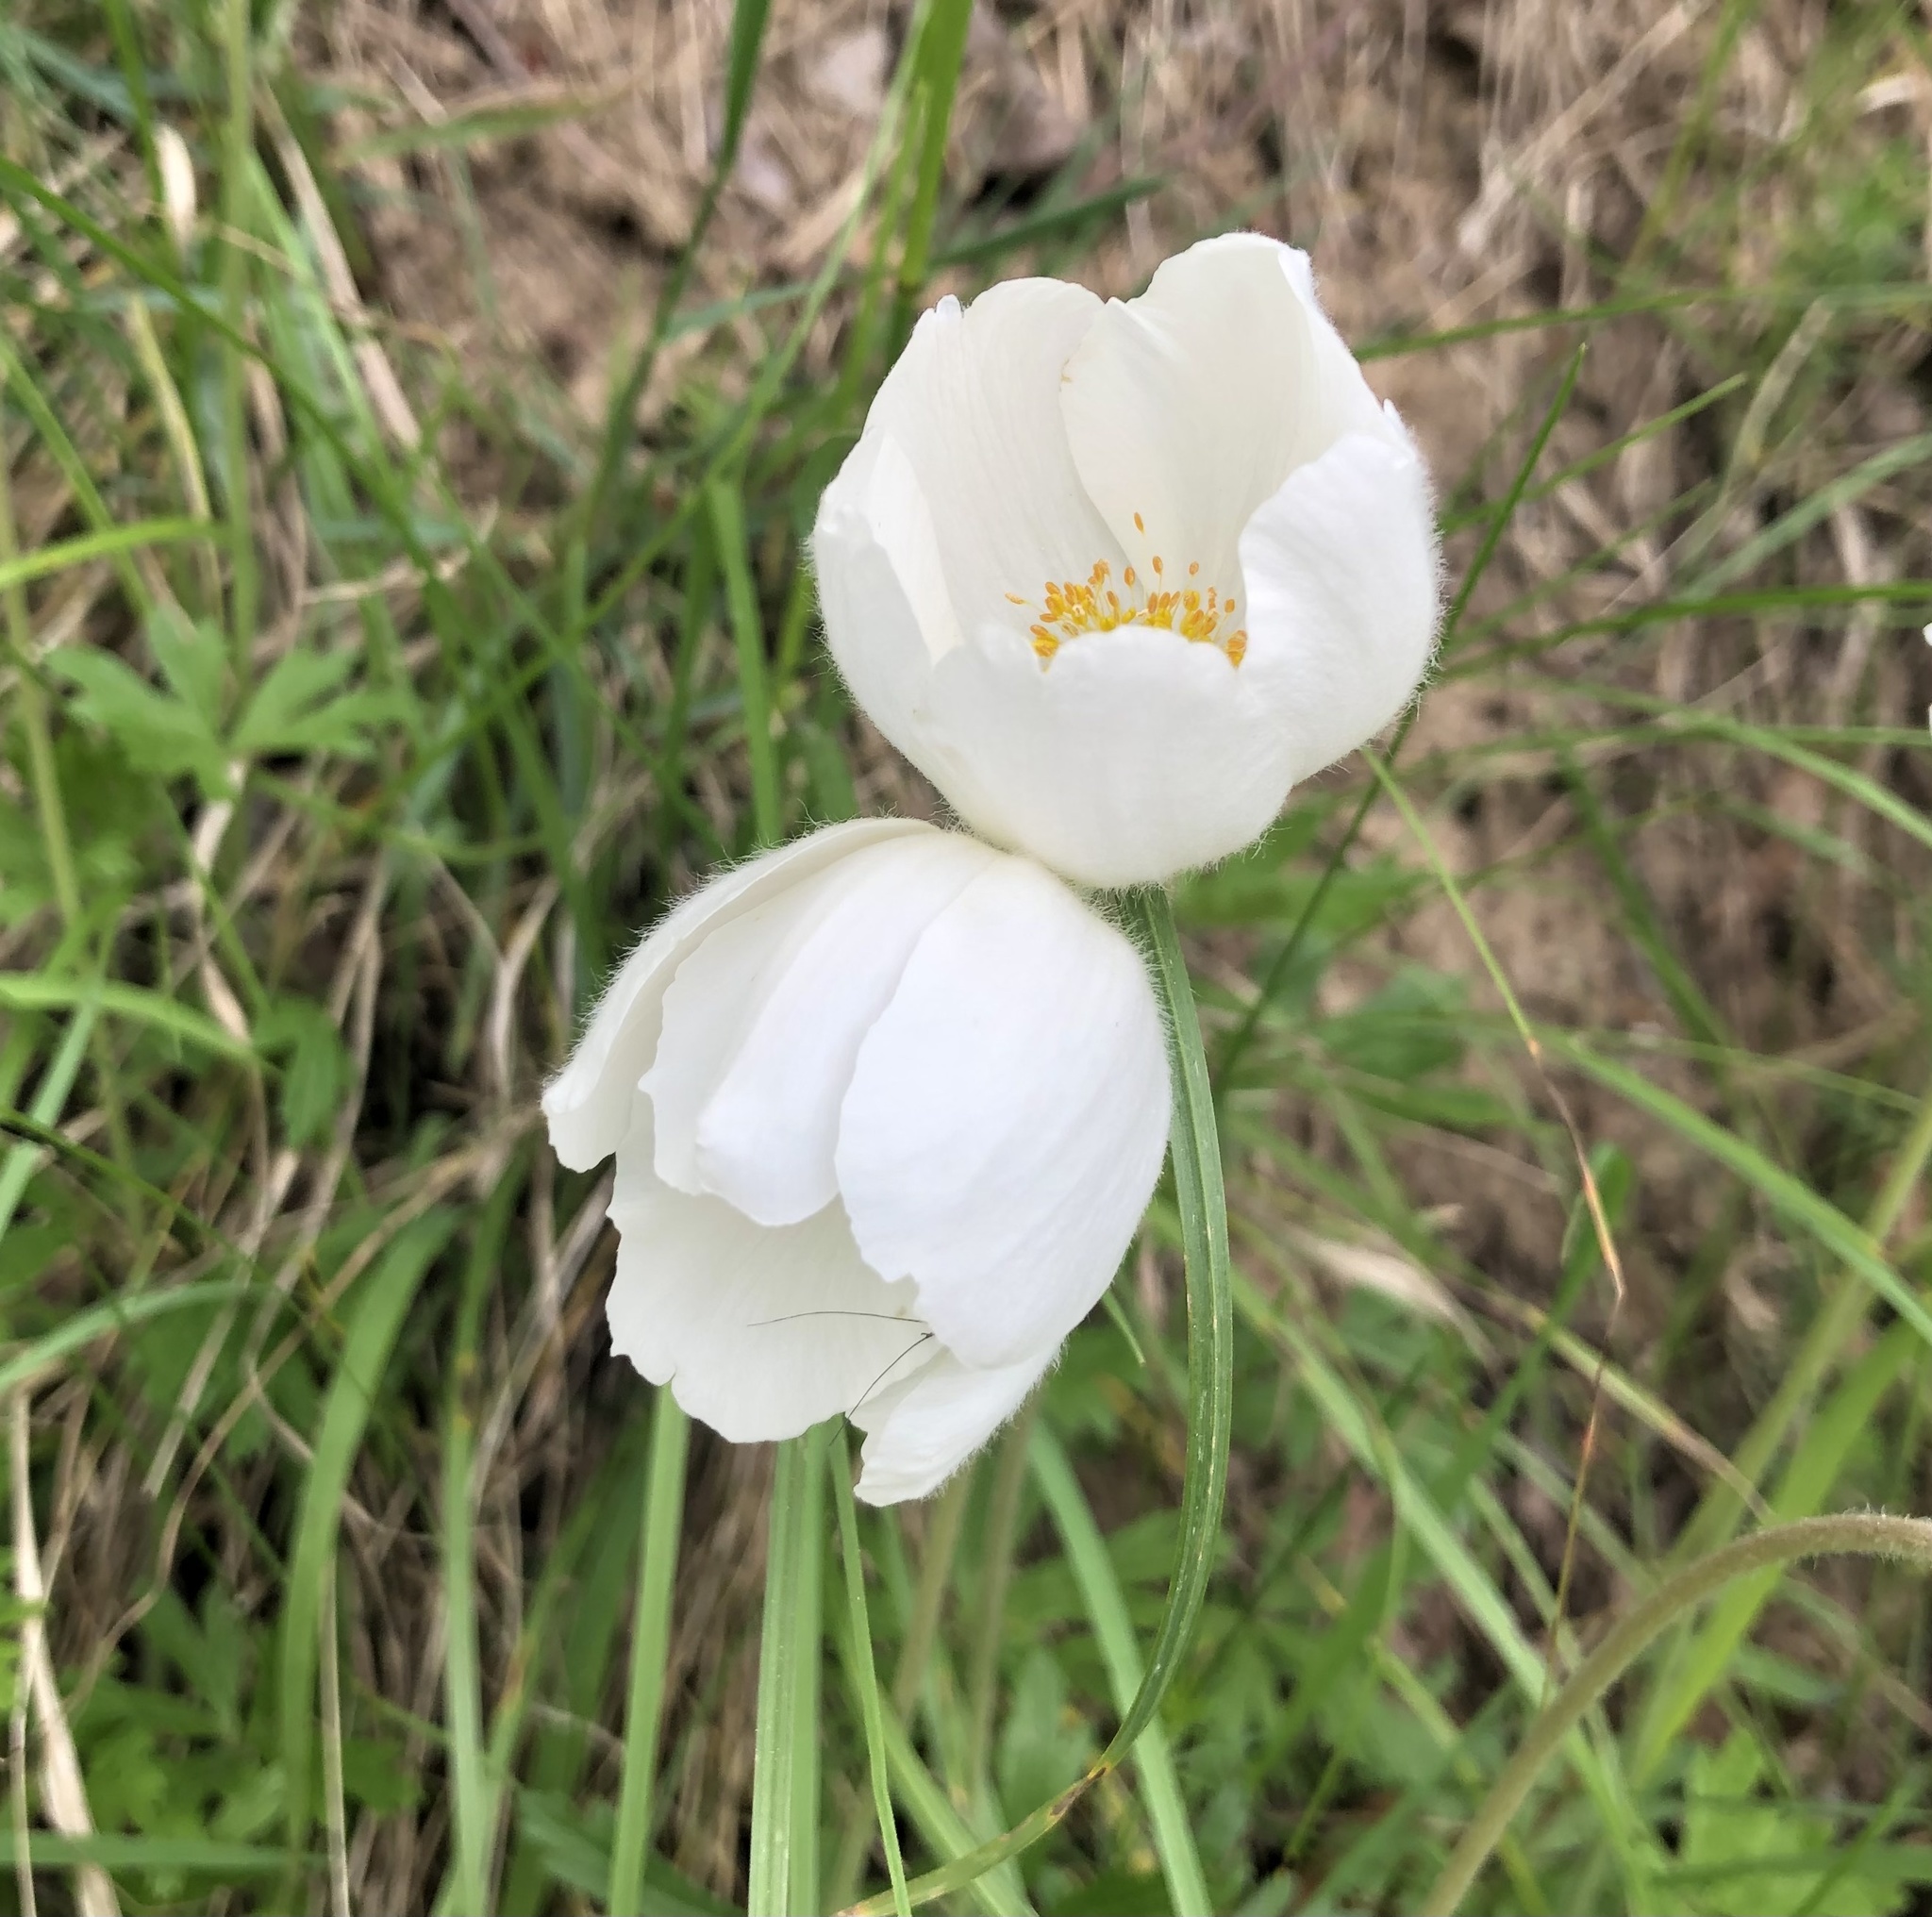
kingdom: Plantae
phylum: Tracheophyta
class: Magnoliopsida
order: Ranunculales
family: Ranunculaceae
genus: Anemone
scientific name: Anemone sylvestris
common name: Snowdrop anemone
